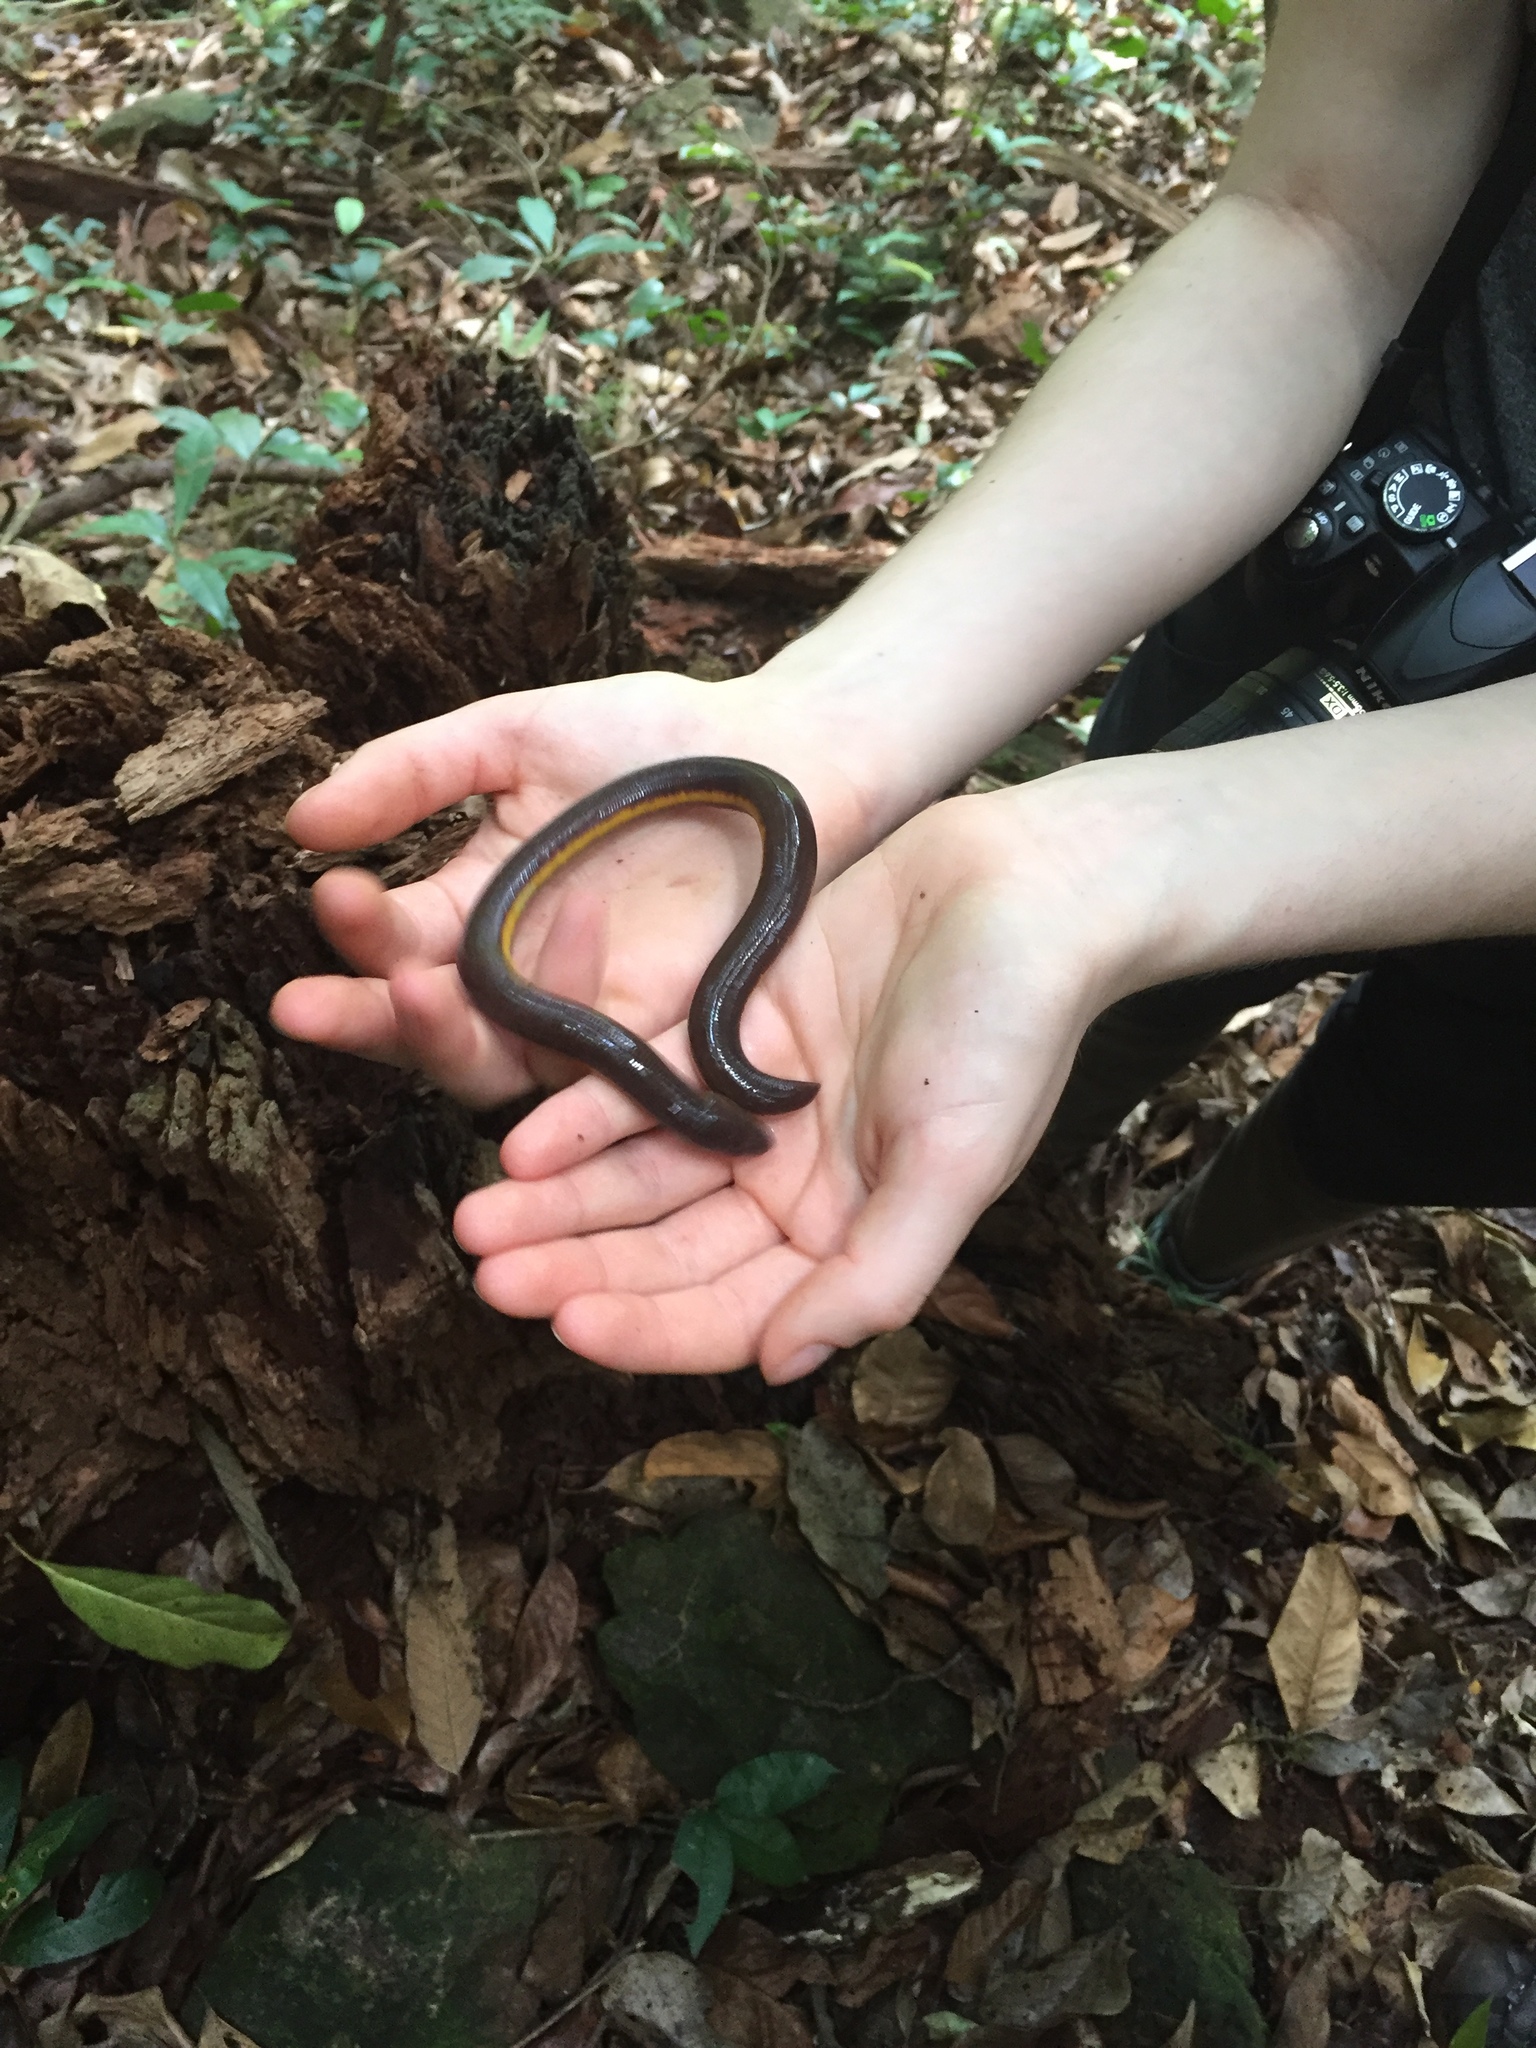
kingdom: Animalia
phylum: Chordata
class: Amphibia
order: Gymnophiona
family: Ichthyophiidae
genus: Ichthyophis
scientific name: Ichthyophis beddomei
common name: Beddome's caecilian
